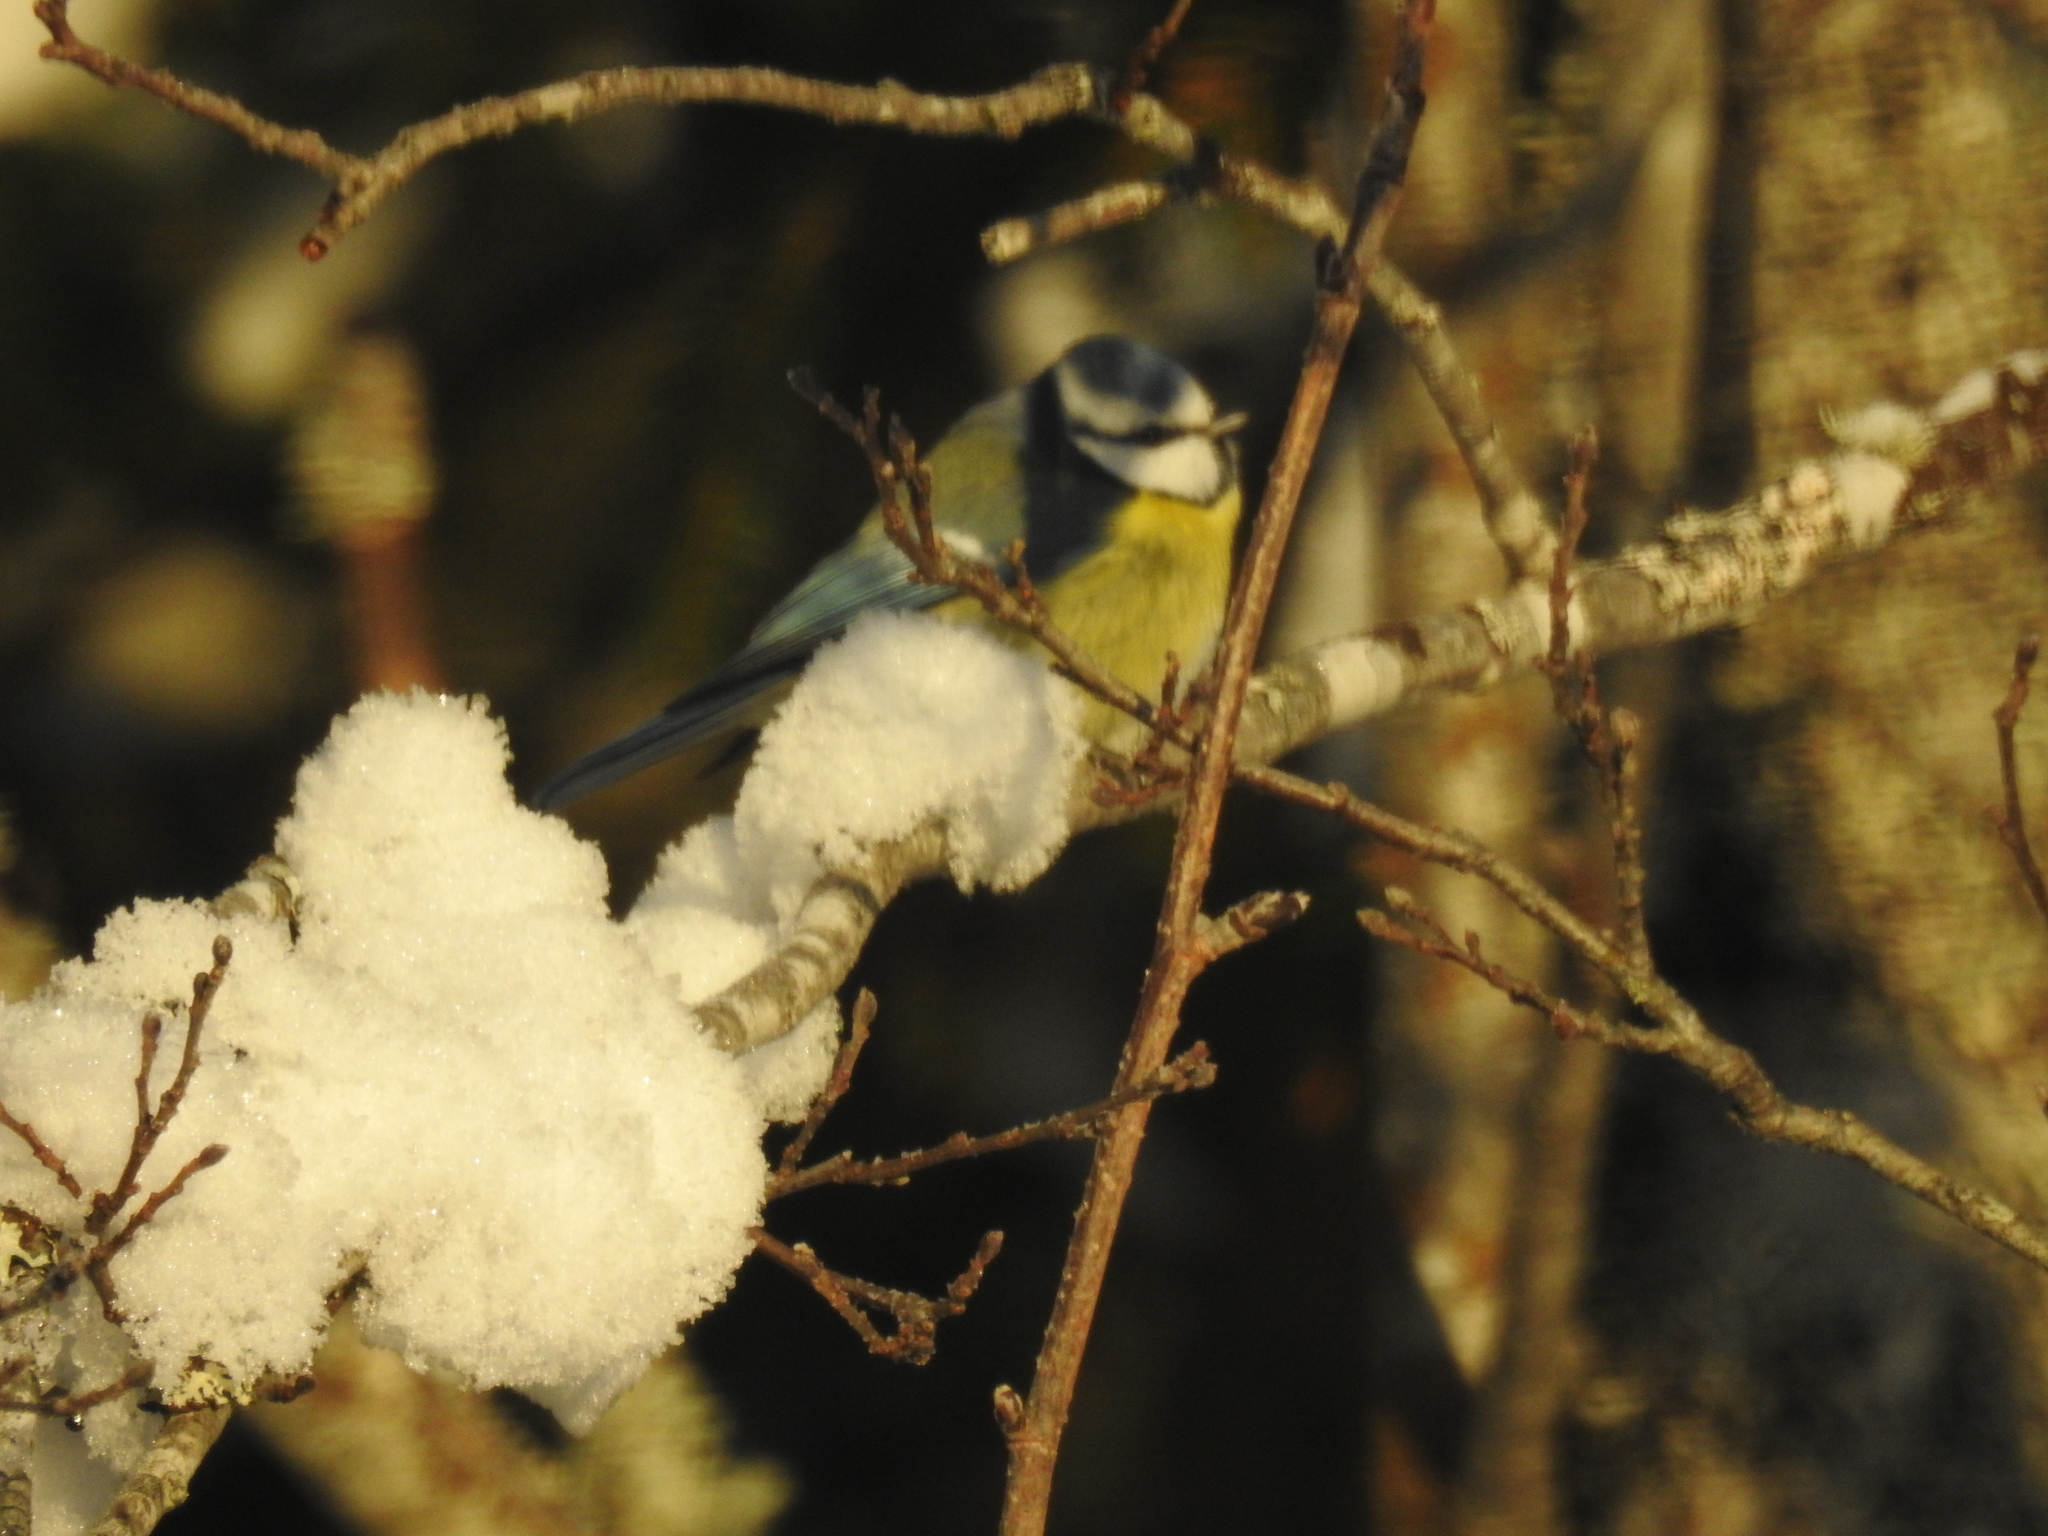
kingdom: Animalia
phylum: Chordata
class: Aves
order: Passeriformes
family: Paridae
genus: Cyanistes
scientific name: Cyanistes caeruleus
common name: Eurasian blue tit
